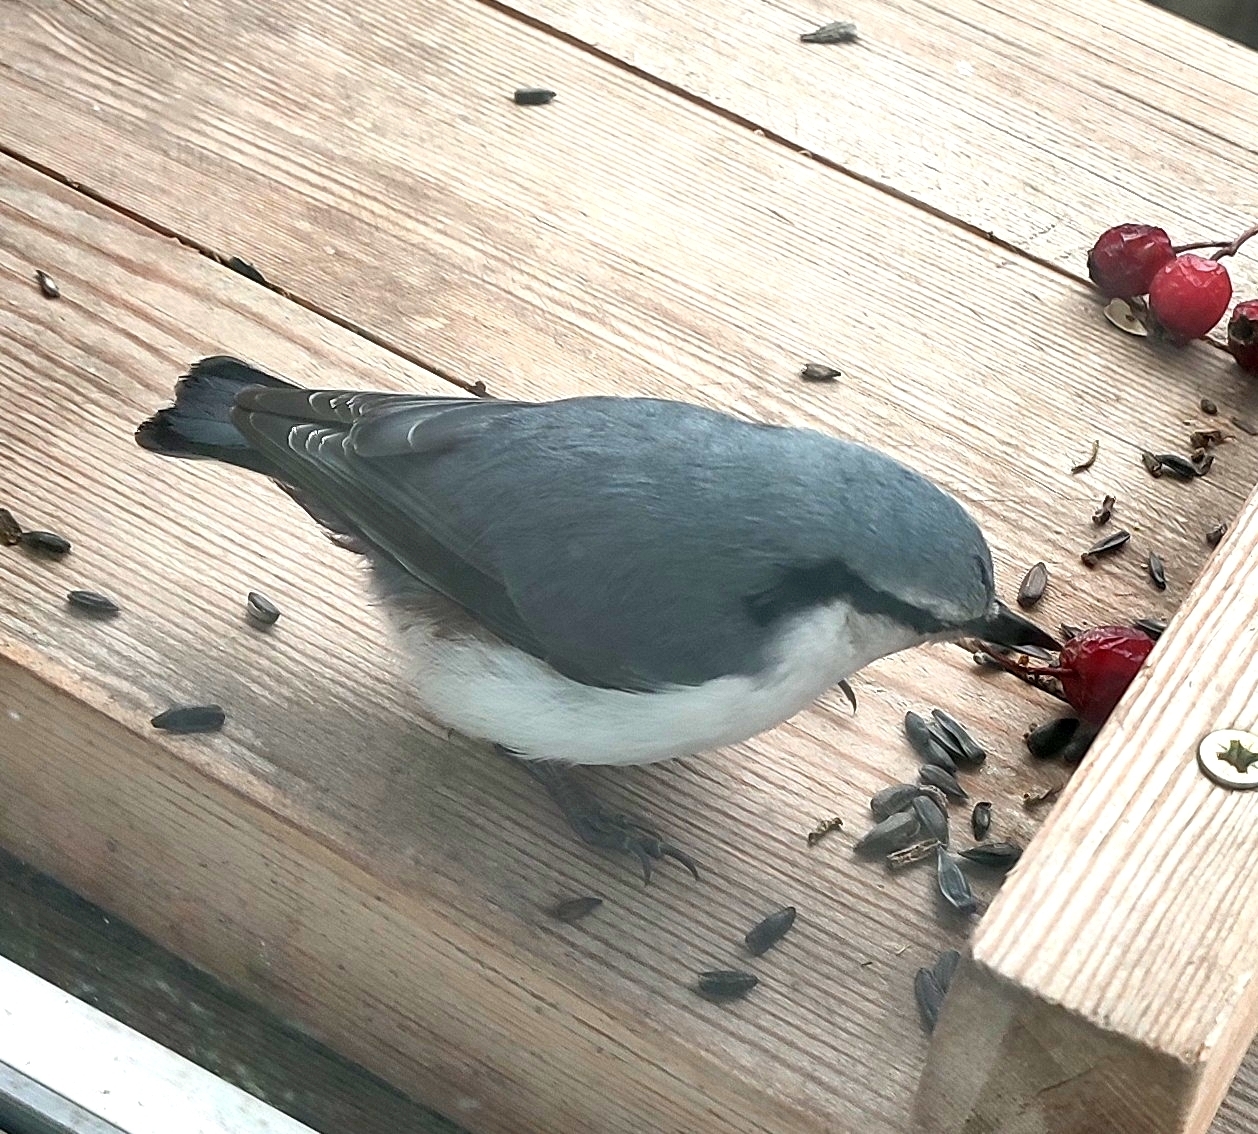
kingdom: Animalia
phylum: Chordata
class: Aves
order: Passeriformes
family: Sittidae
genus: Sitta
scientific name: Sitta europaea
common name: Eurasian nuthatch
